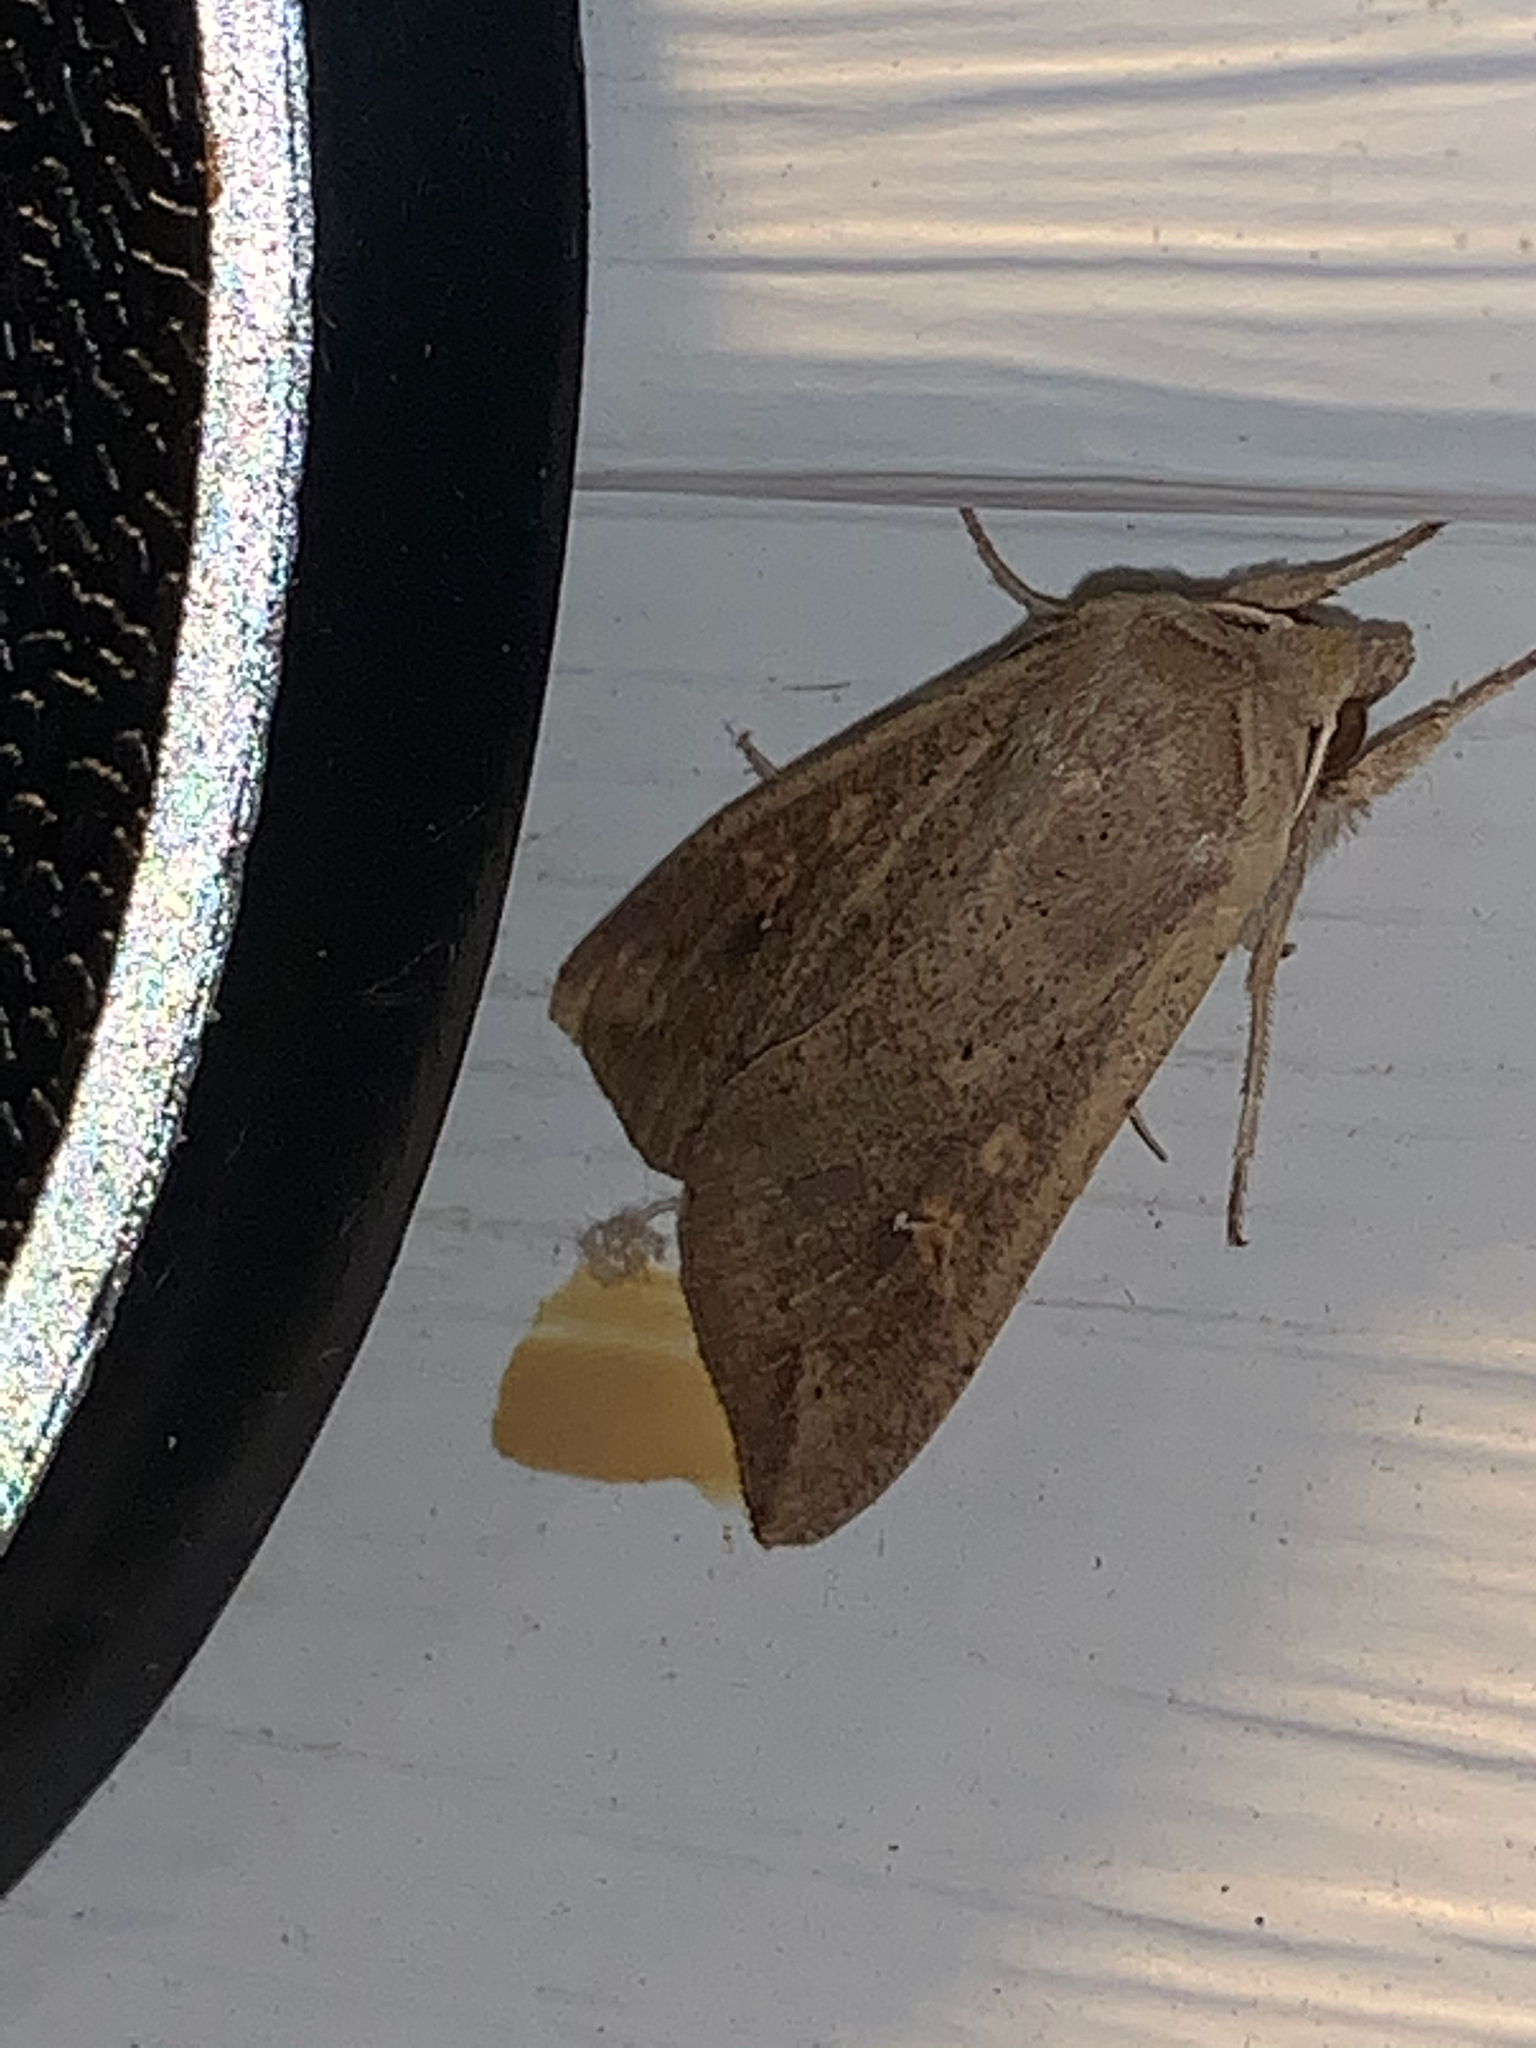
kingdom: Animalia
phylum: Arthropoda
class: Insecta
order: Lepidoptera
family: Noctuidae
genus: Mythimna
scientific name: Mythimna unipuncta
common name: White-speck
